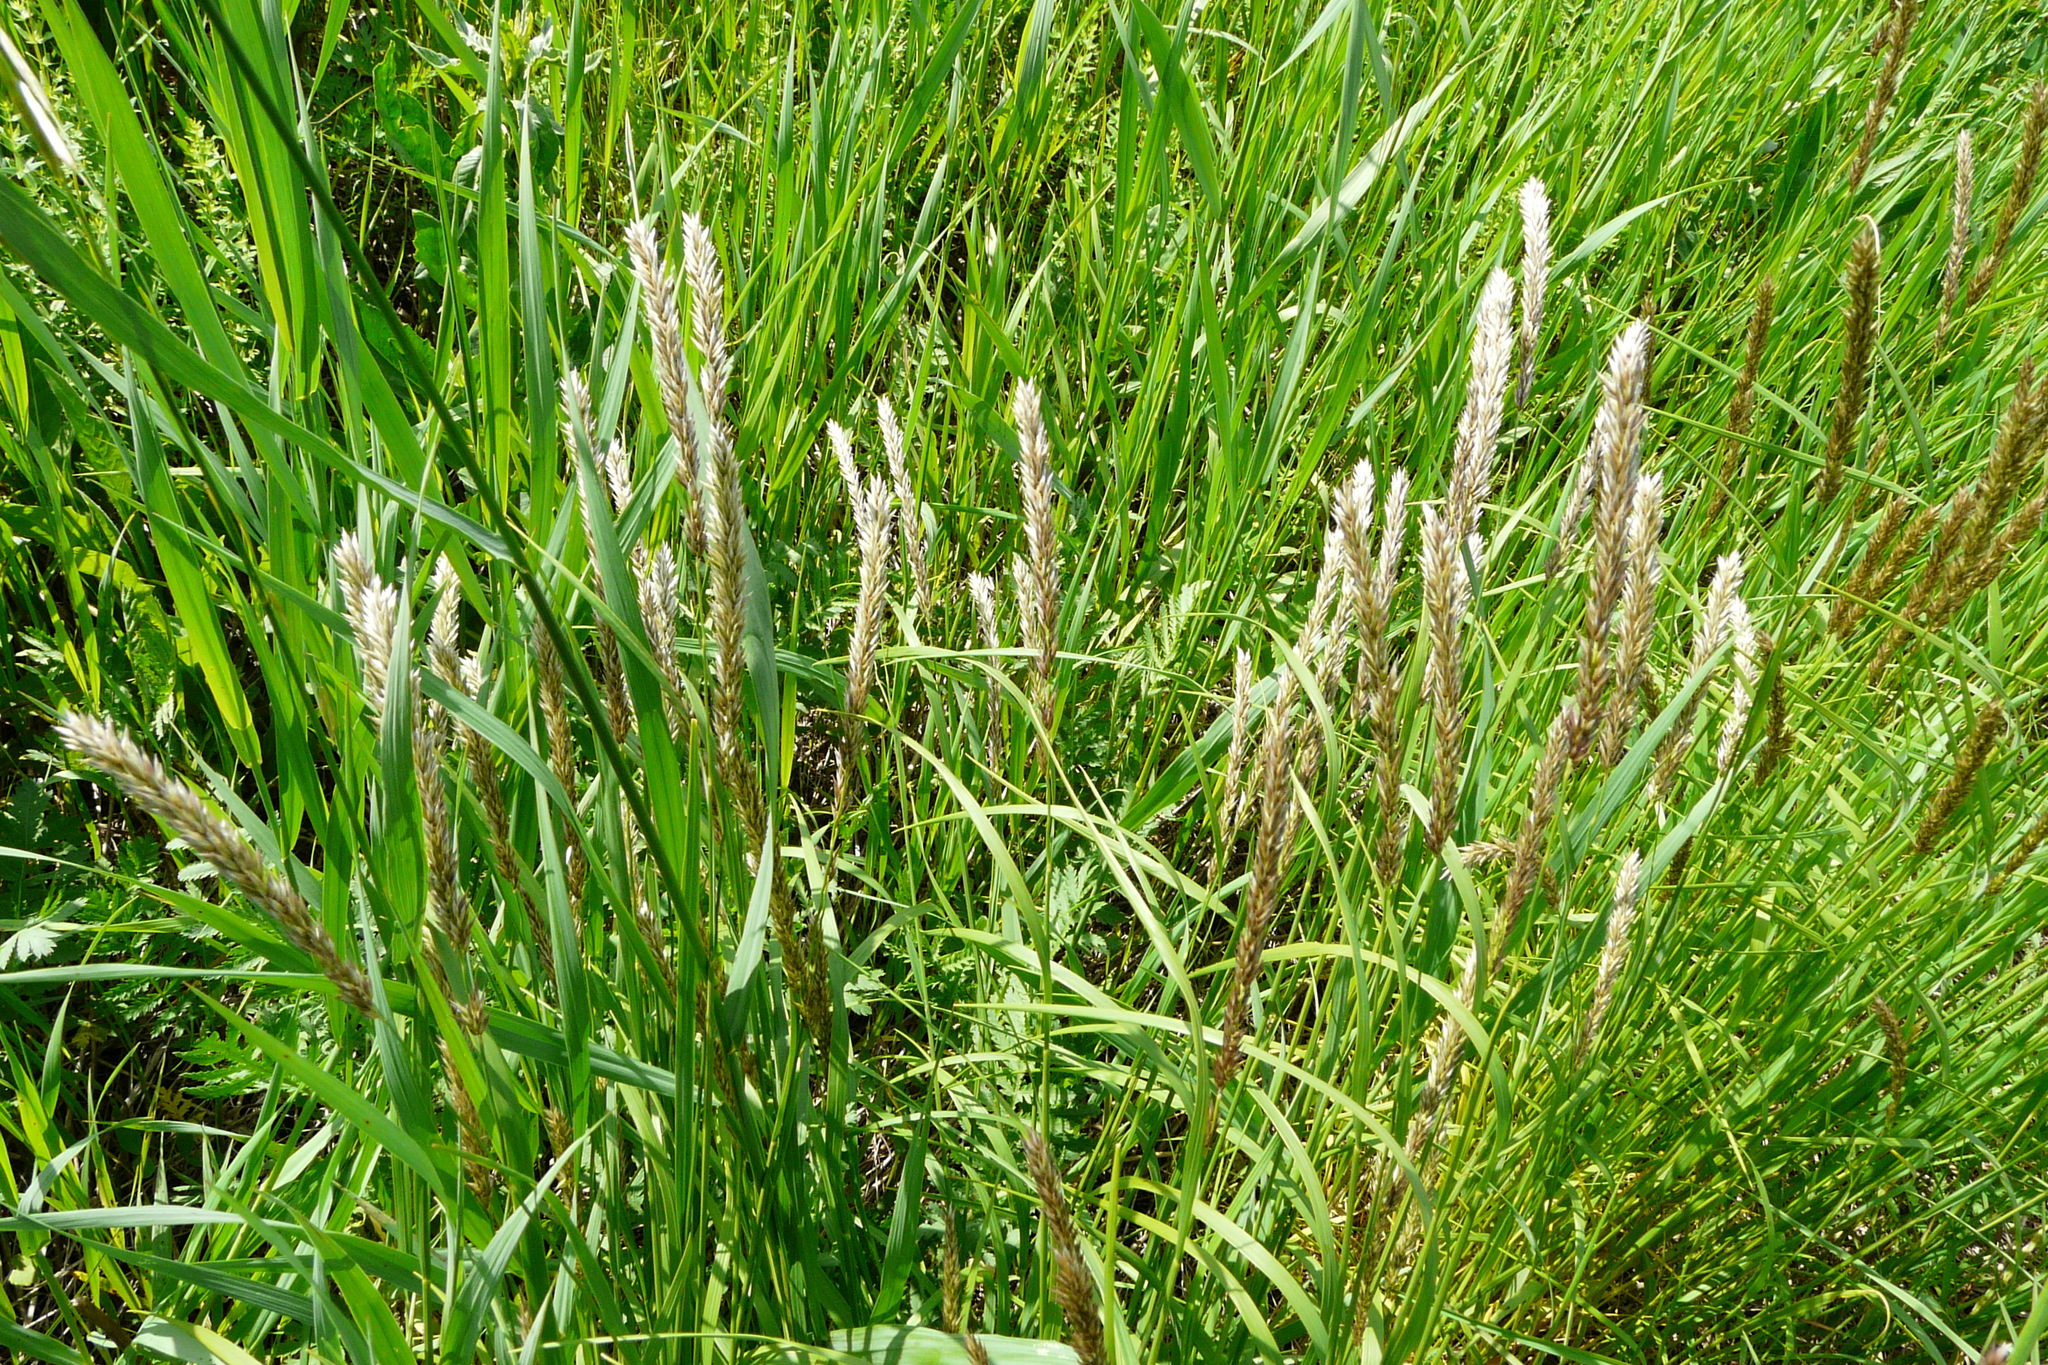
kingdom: Plantae
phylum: Tracheophyta
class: Liliopsida
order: Poales
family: Poaceae
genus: Melica
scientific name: Melica transsilvanica
